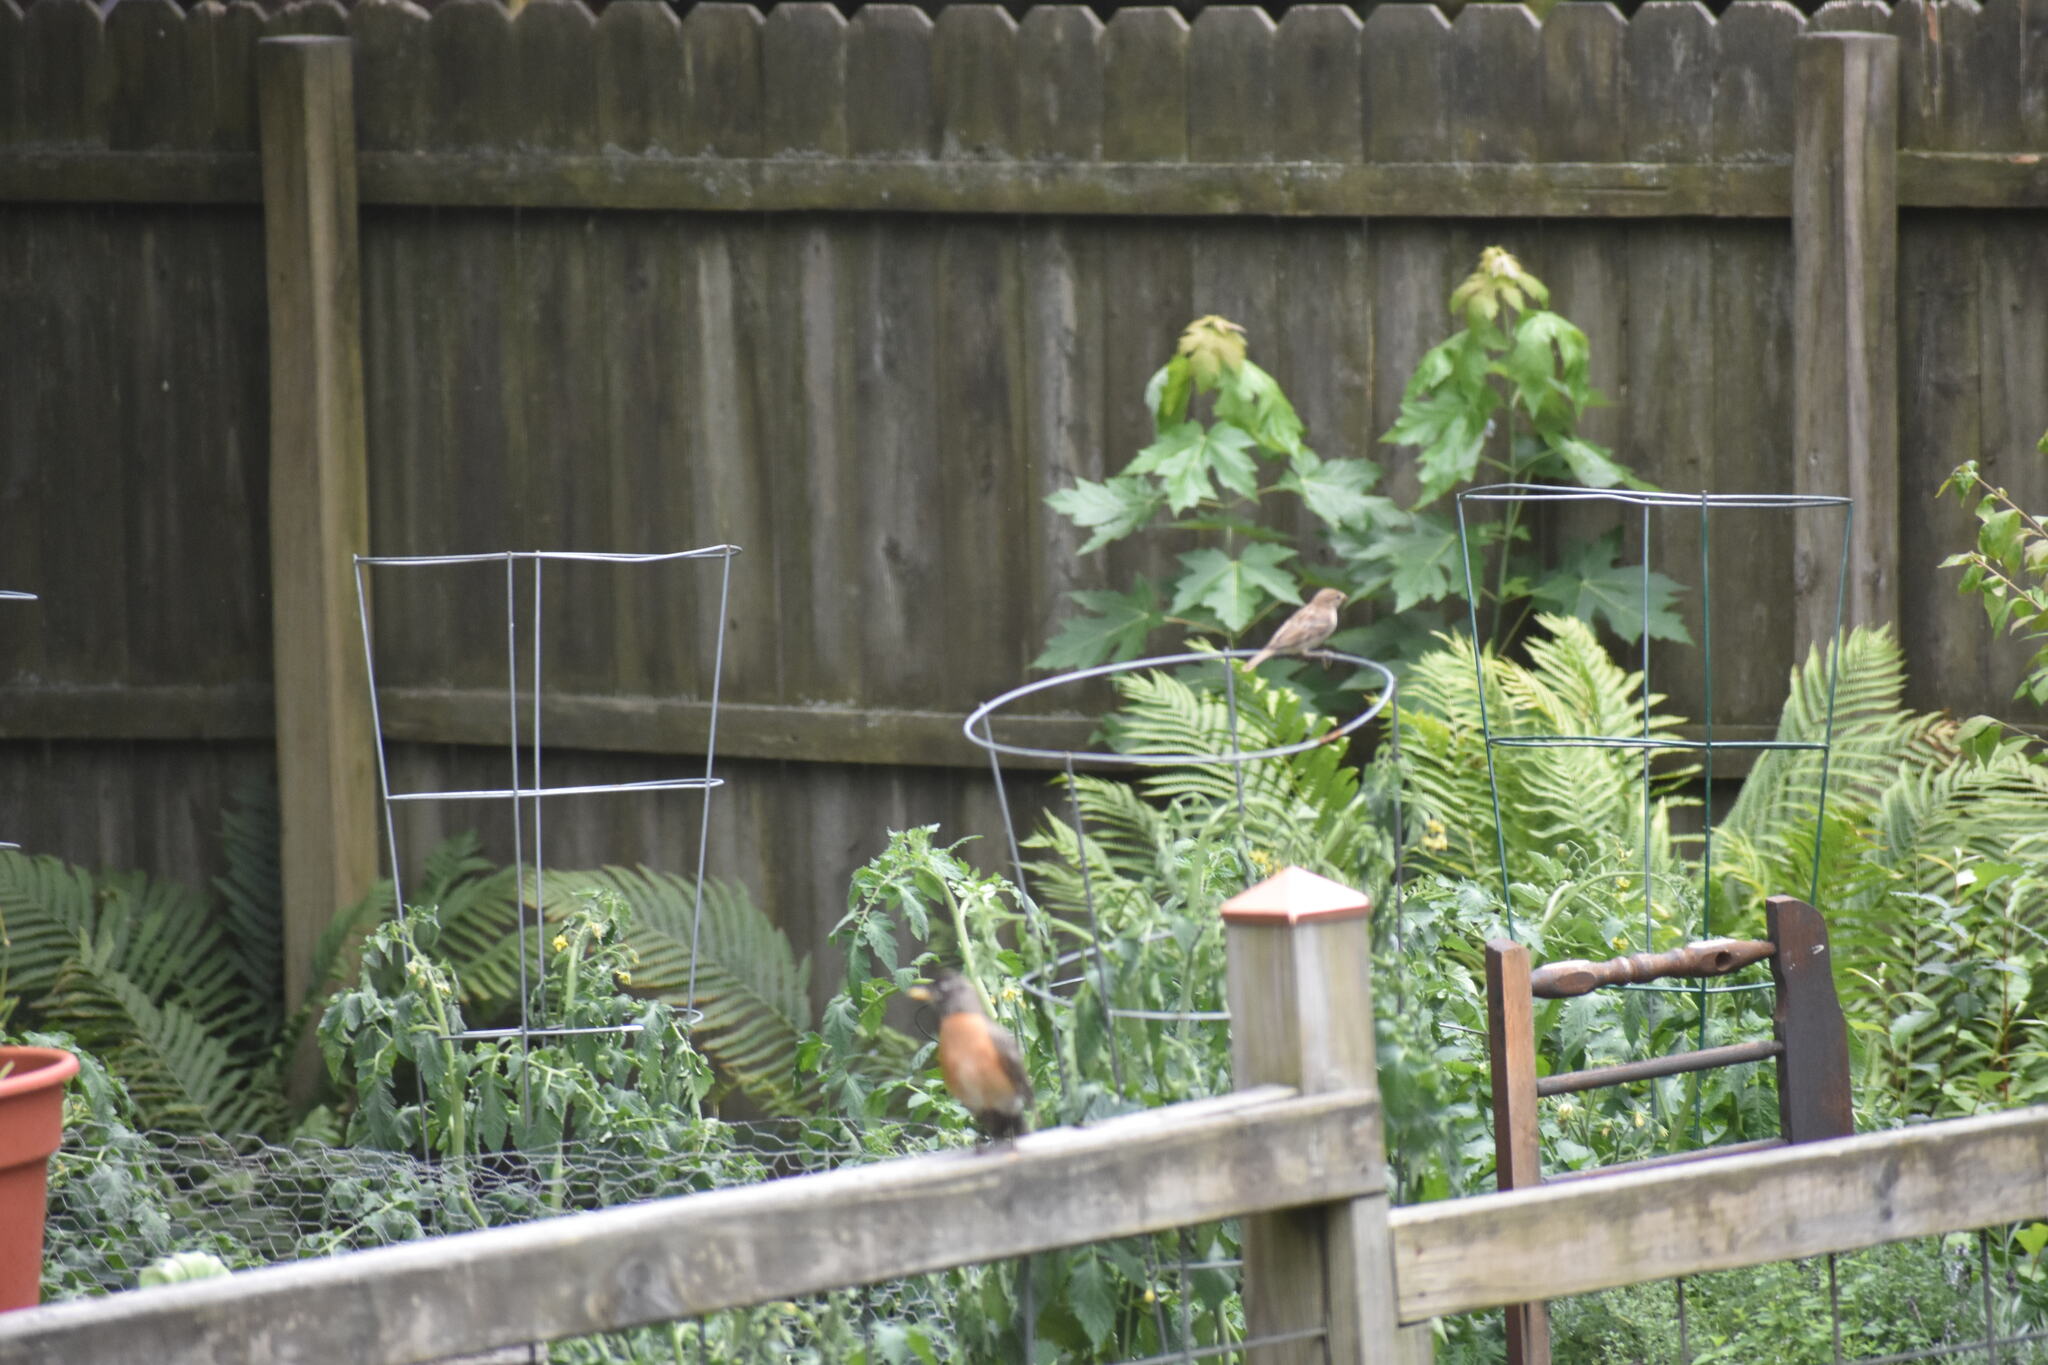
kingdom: Animalia
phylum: Chordata
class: Aves
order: Passeriformes
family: Passeridae
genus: Passer
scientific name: Passer domesticus
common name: House sparrow
